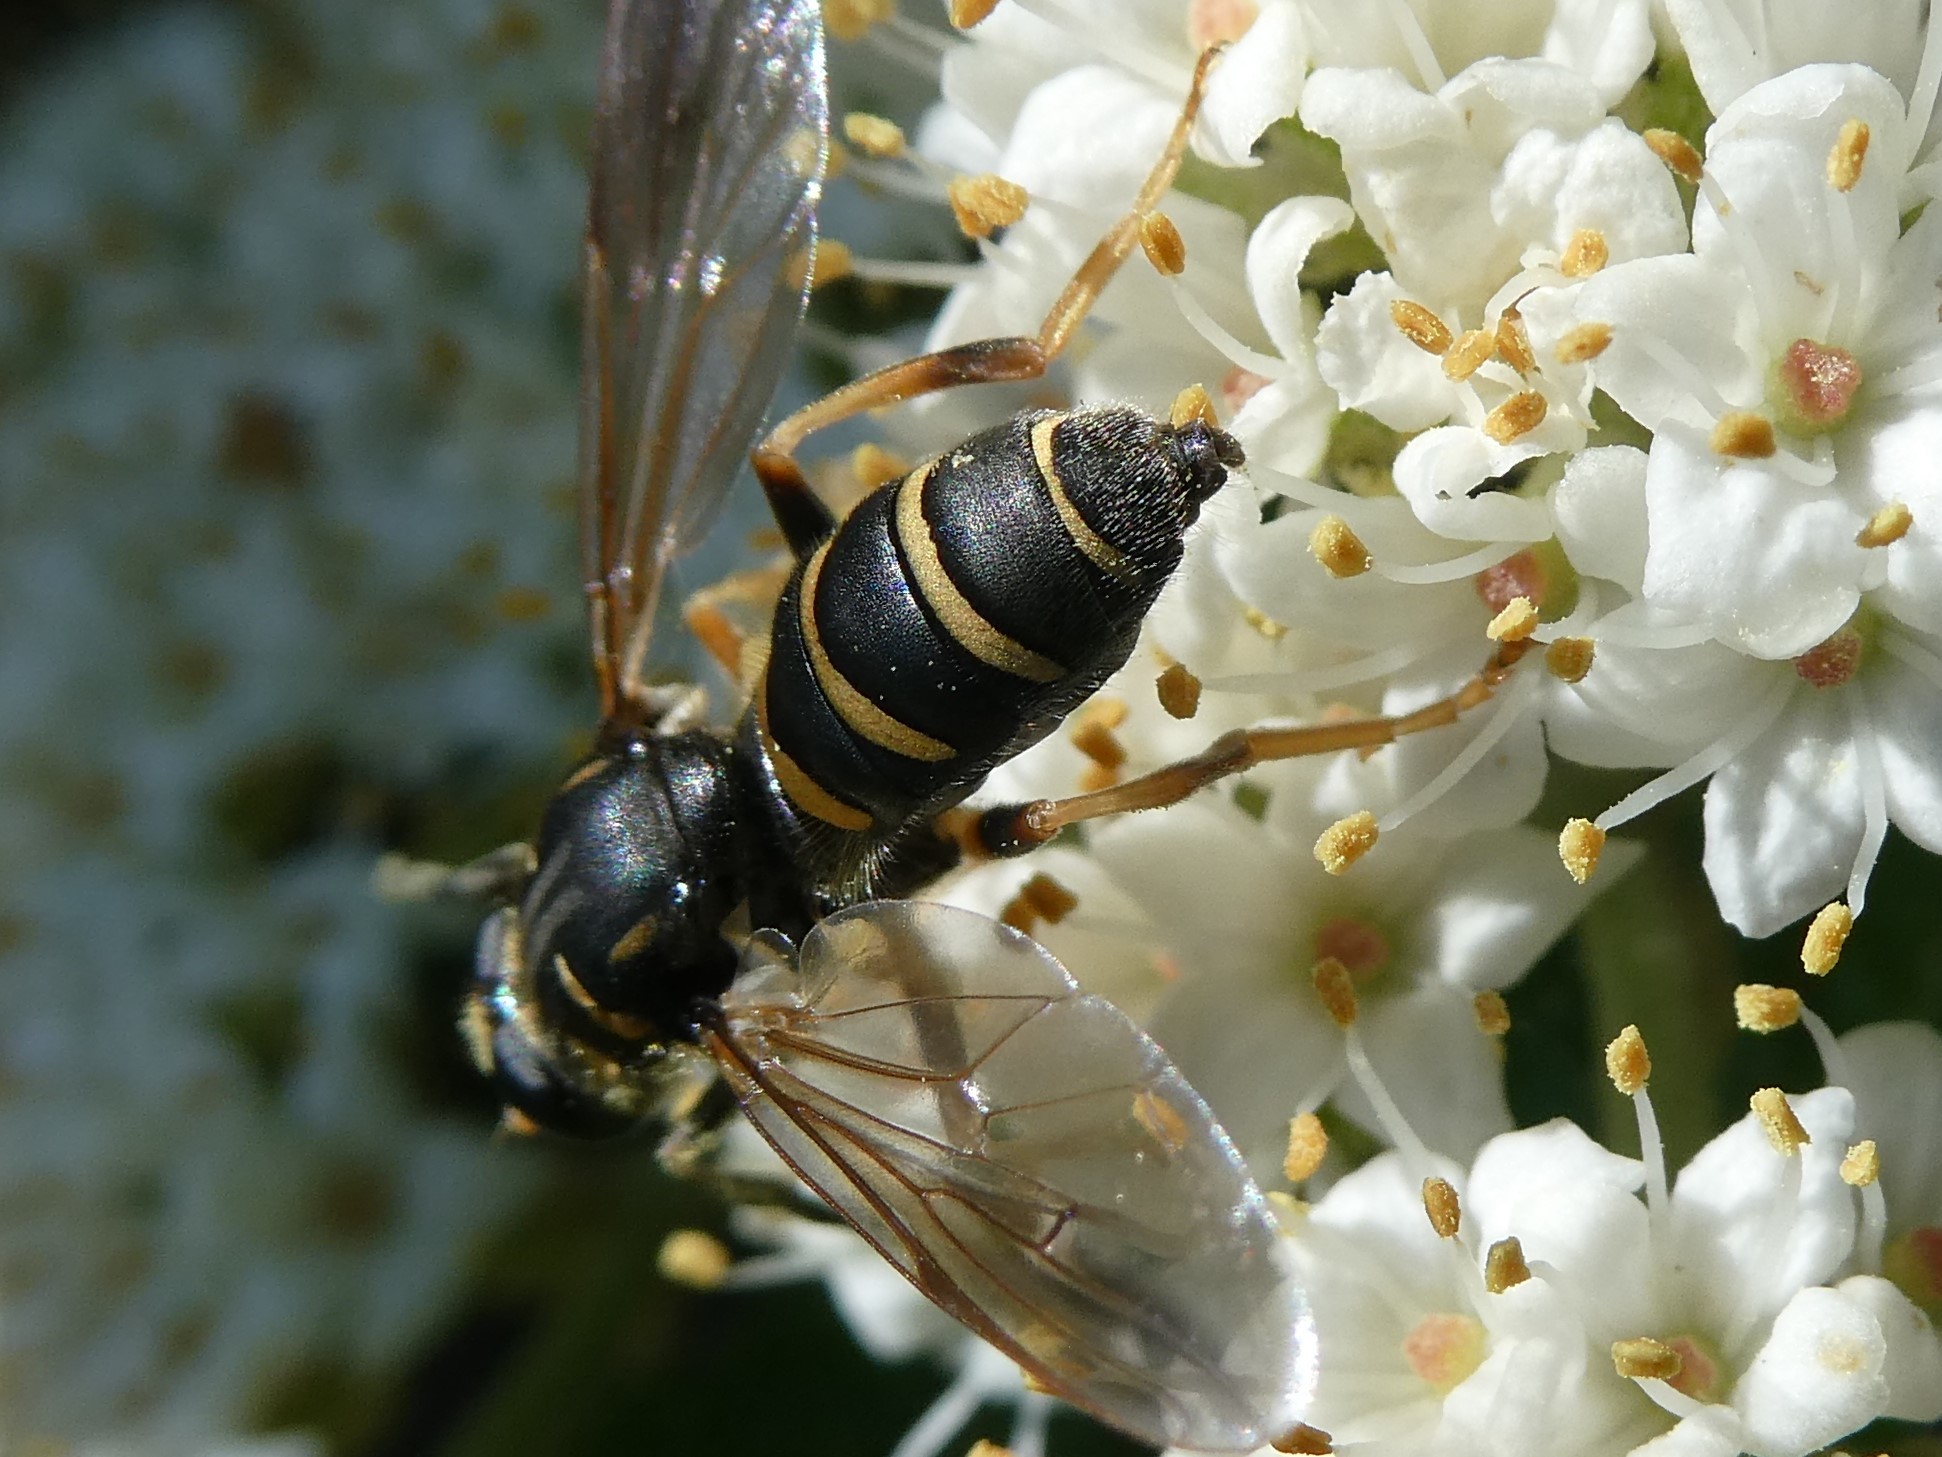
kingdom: Animalia
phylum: Arthropoda
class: Insecta
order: Diptera
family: Syrphidae
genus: Temnostoma
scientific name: Temnostoma
